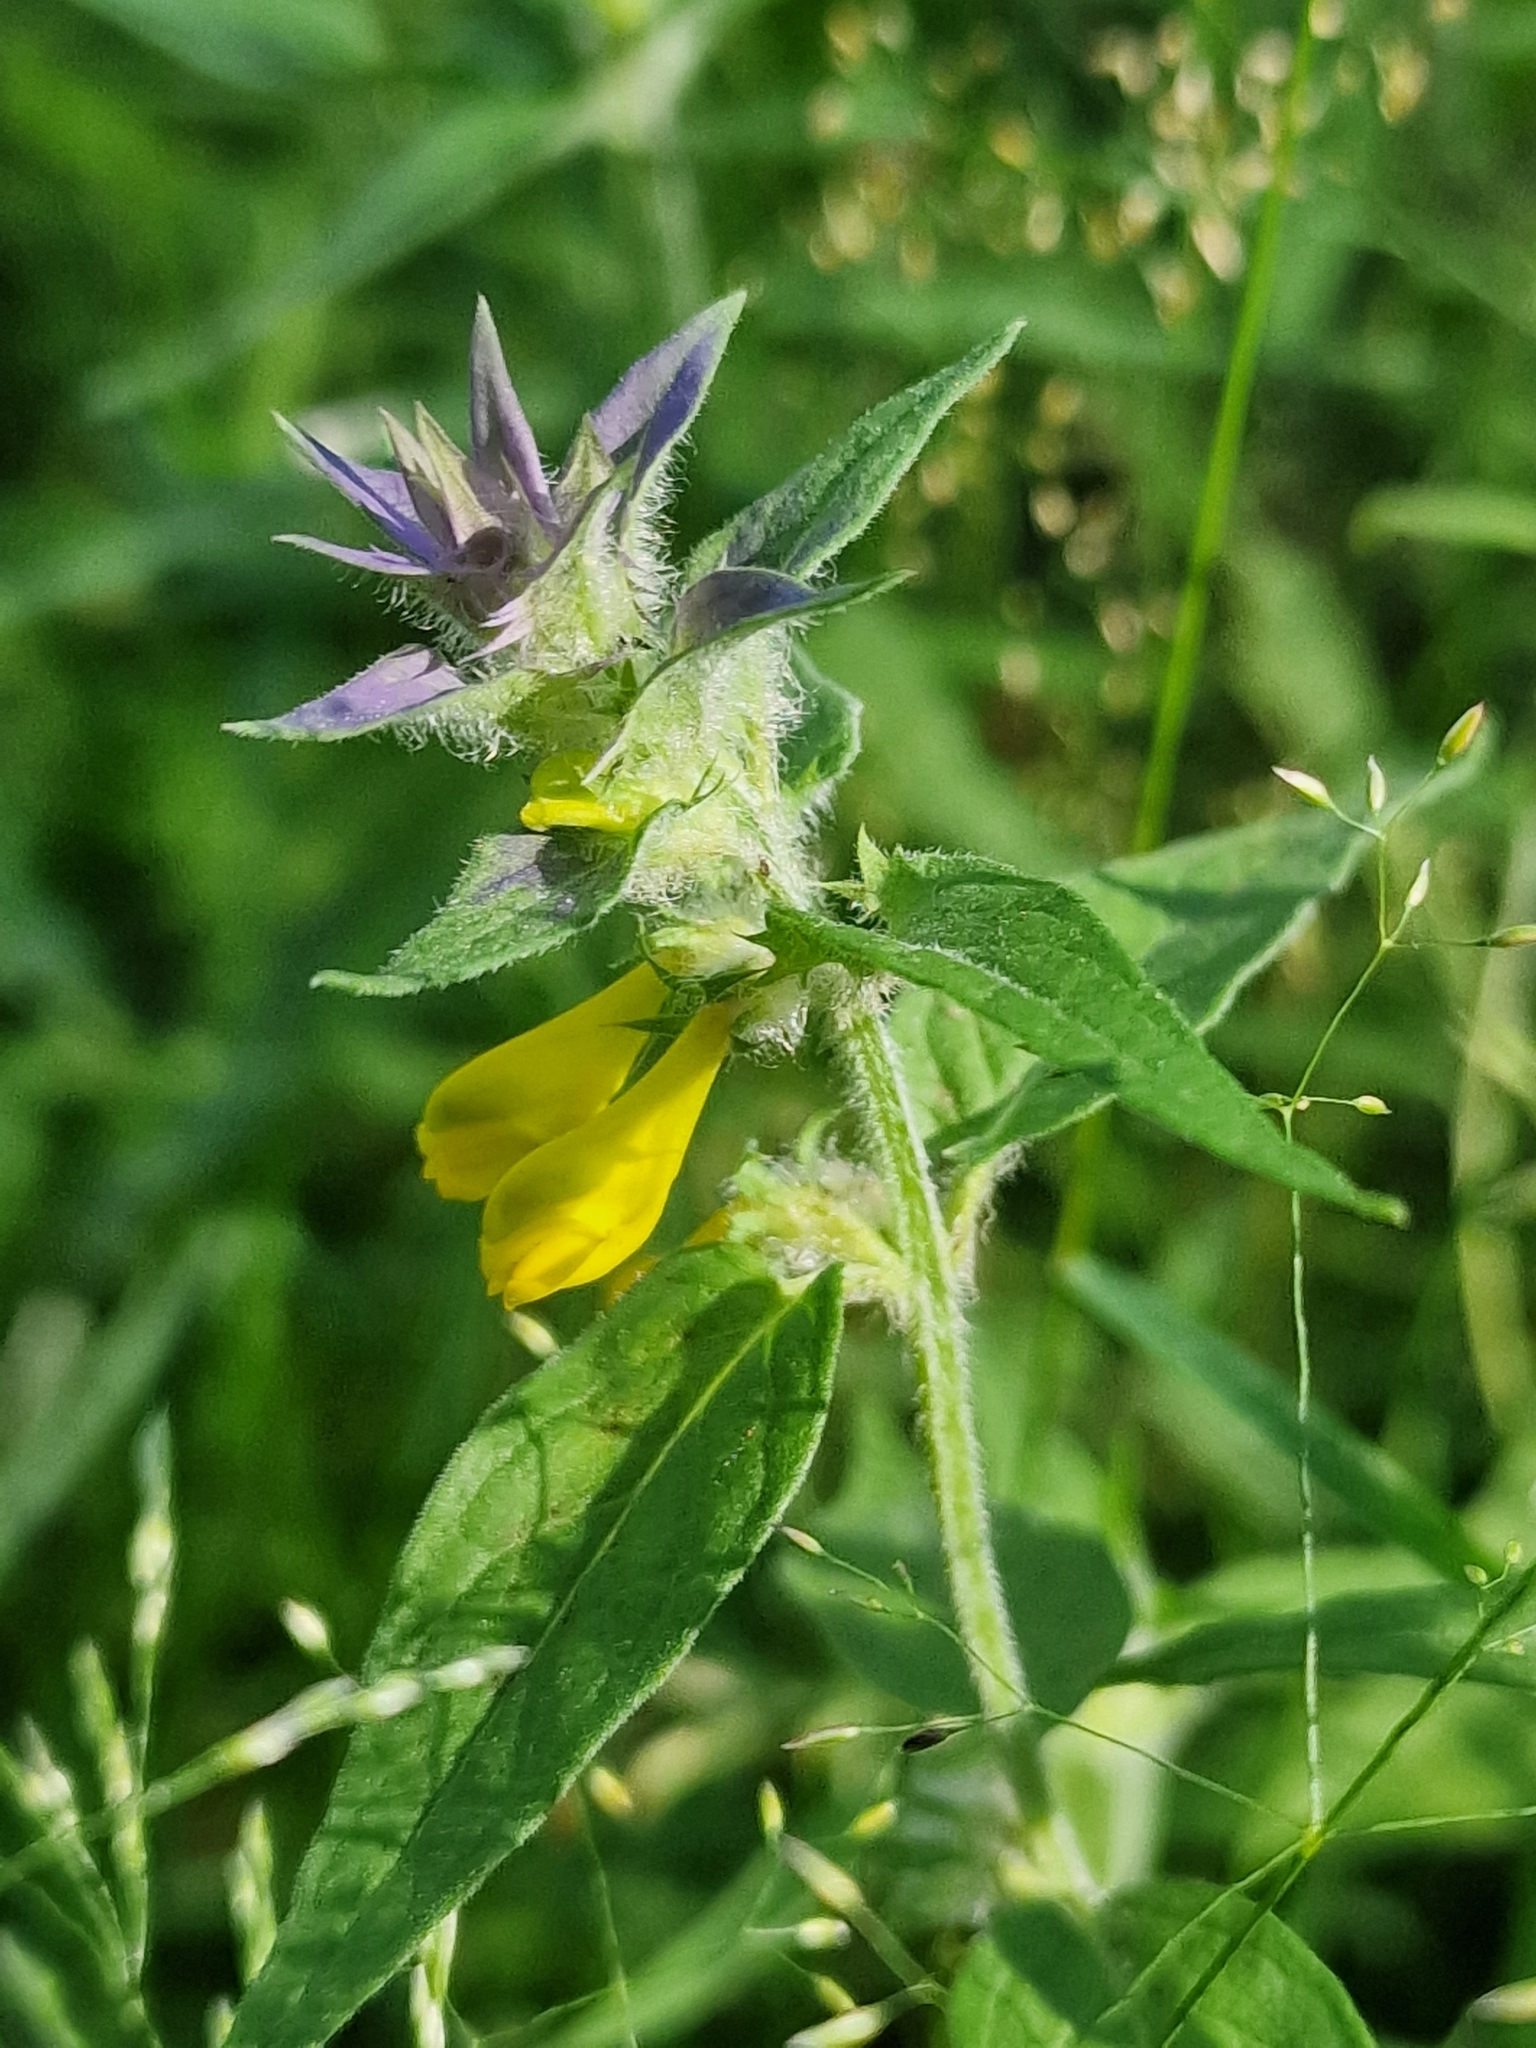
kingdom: Plantae
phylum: Tracheophyta
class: Magnoliopsida
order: Lamiales
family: Orobanchaceae
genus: Melampyrum
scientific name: Melampyrum nemorosum
